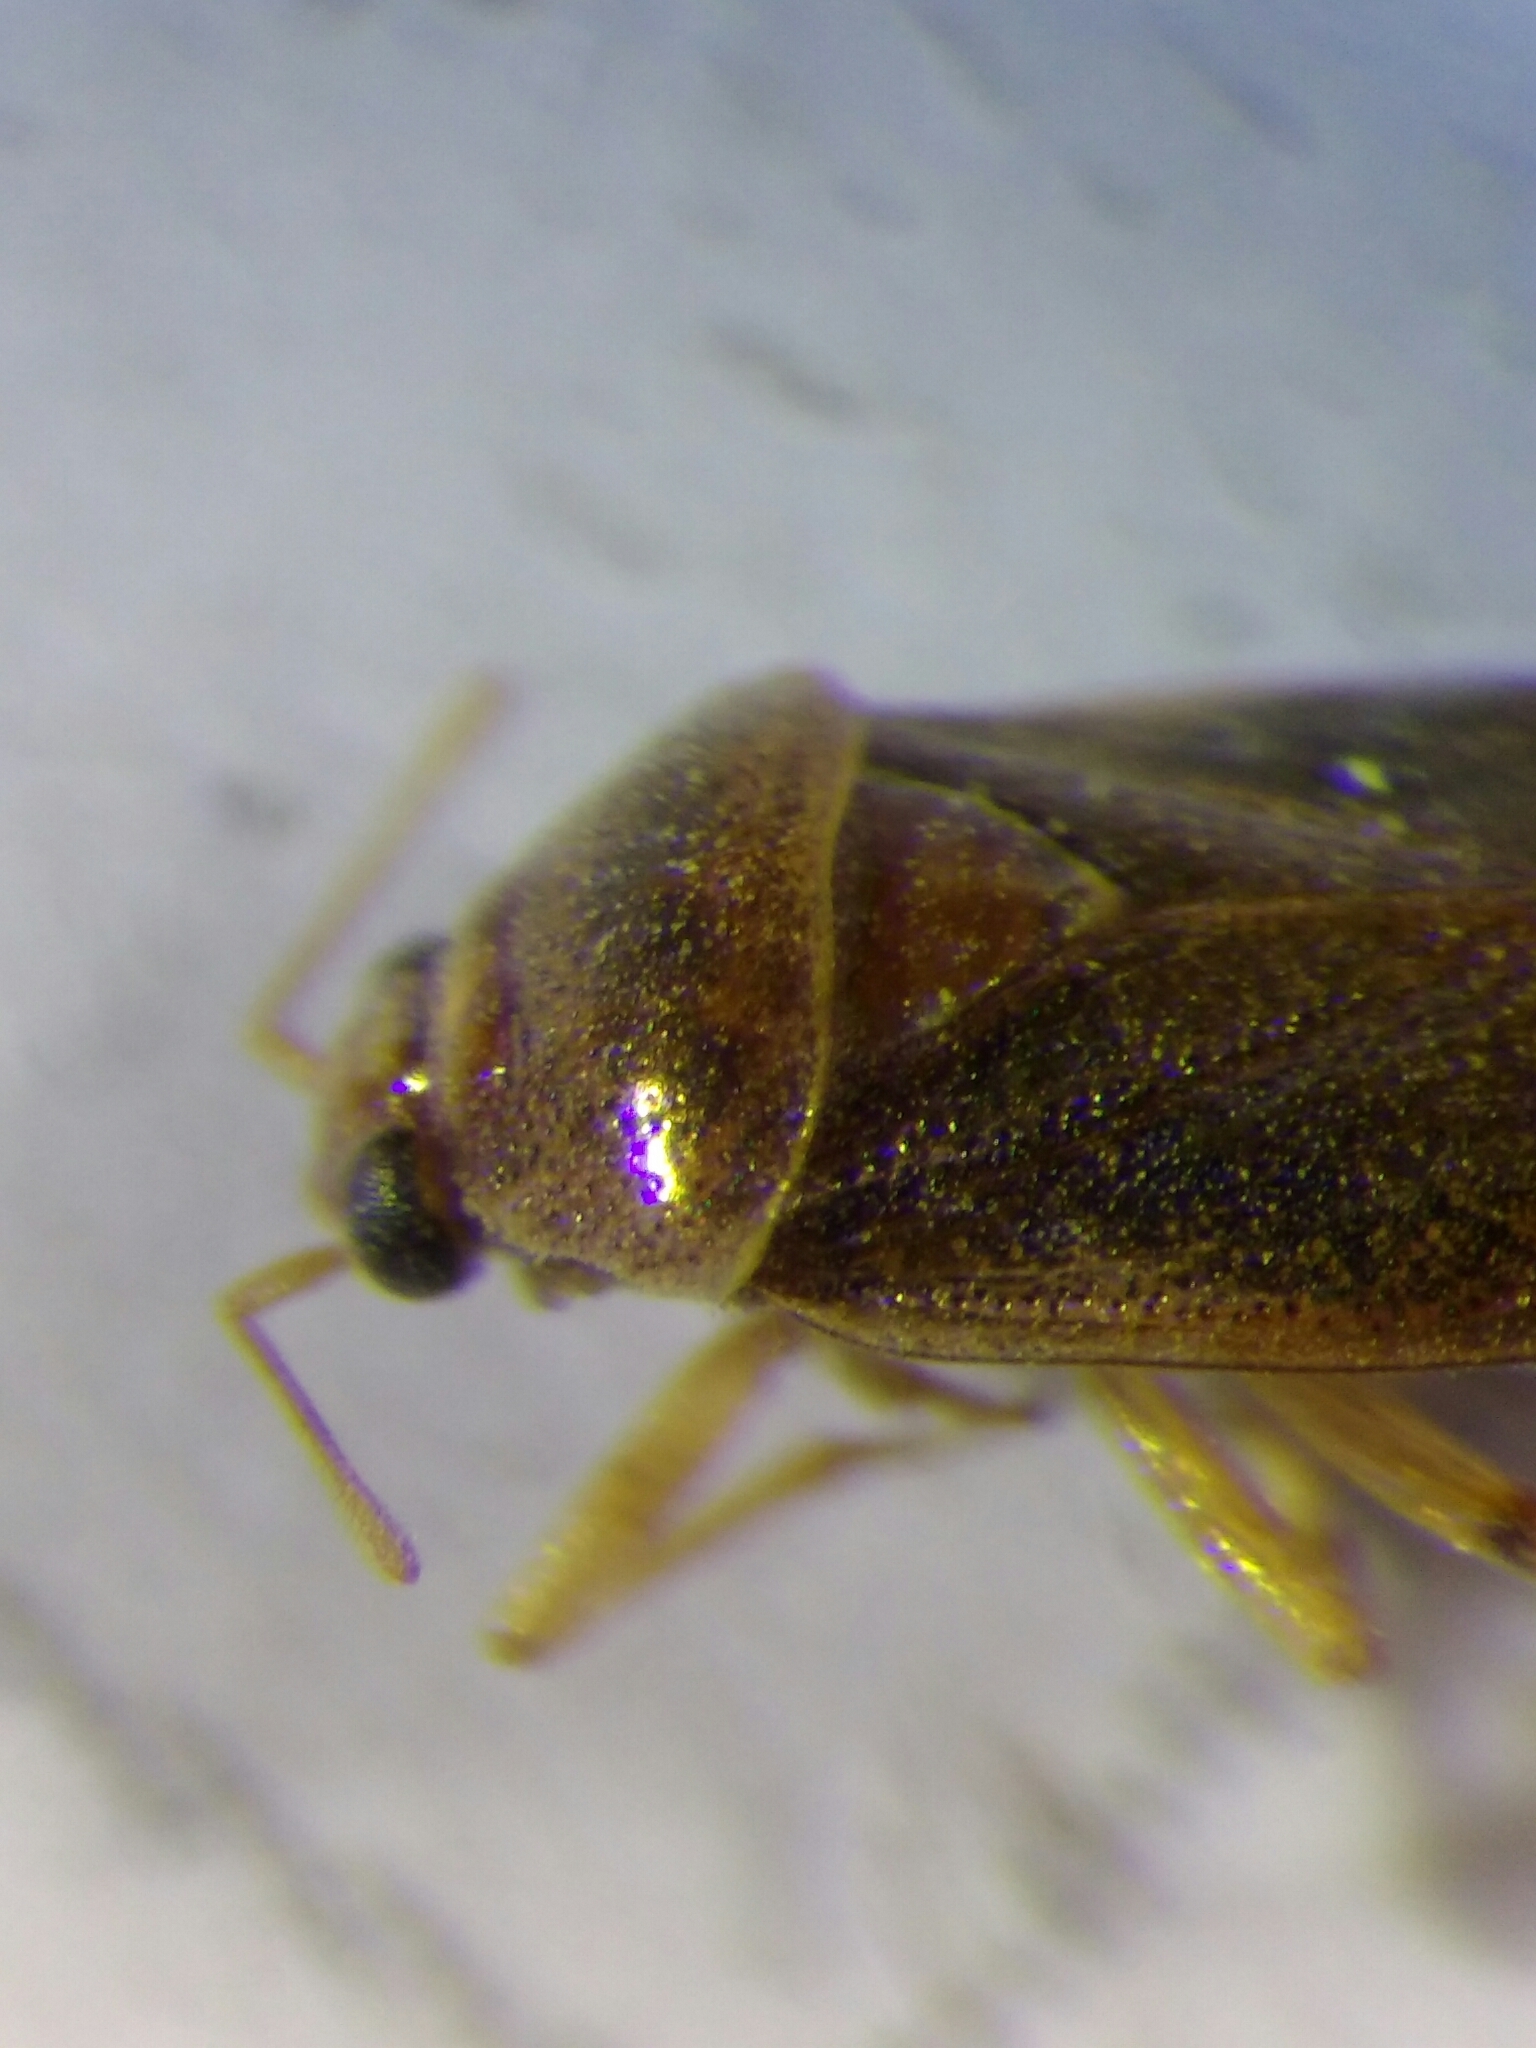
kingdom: Animalia
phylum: Arthropoda
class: Insecta
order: Hemiptera
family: Miridae
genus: Deraeocoris
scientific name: Deraeocoris lutescens
